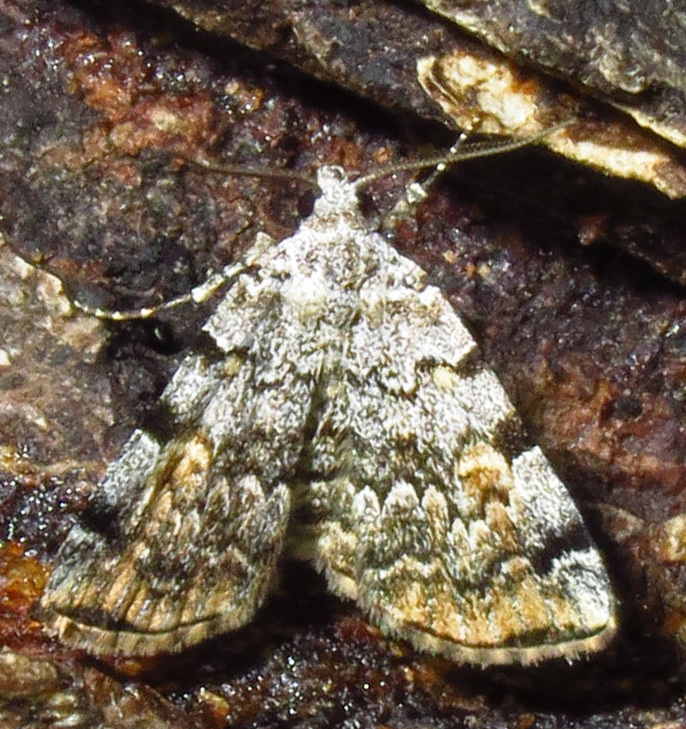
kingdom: Animalia
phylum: Arthropoda
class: Insecta
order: Lepidoptera
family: Erebidae
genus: Idia
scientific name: Idia americalis
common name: American idia moth
